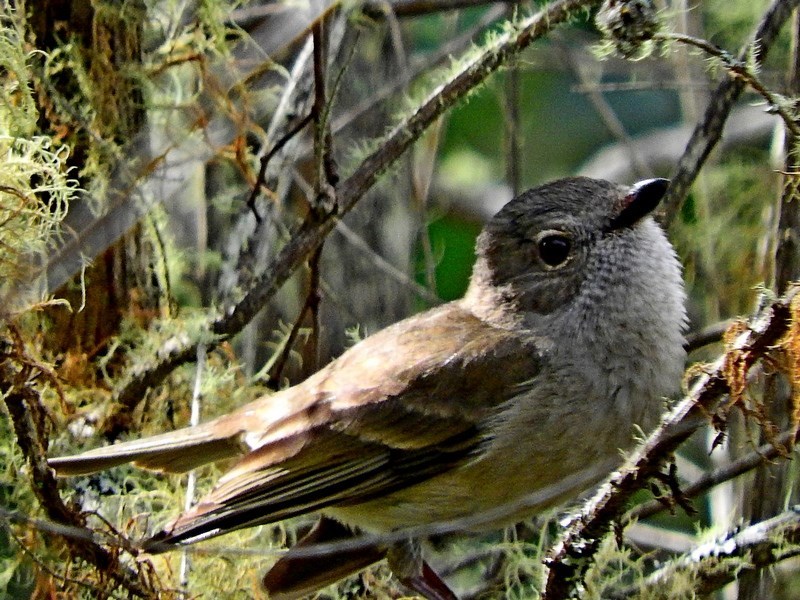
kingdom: Animalia
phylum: Chordata
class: Aves
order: Passeriformes
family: Pachycephalidae
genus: Pachycephala
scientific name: Pachycephala pectoralis
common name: Australian golden whistler
